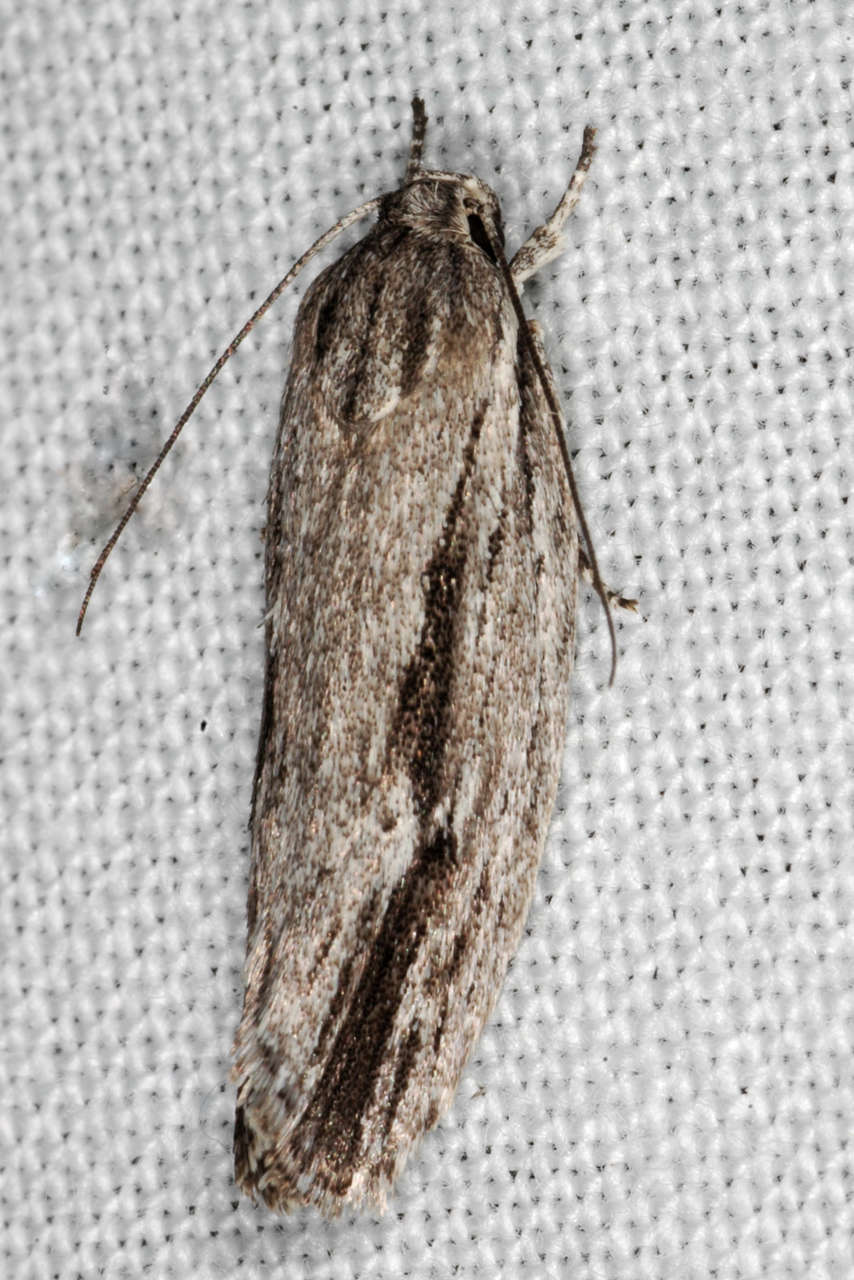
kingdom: Animalia
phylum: Arthropoda
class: Insecta
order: Lepidoptera
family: Depressariidae
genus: Agriophara
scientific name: Agriophara gravis
